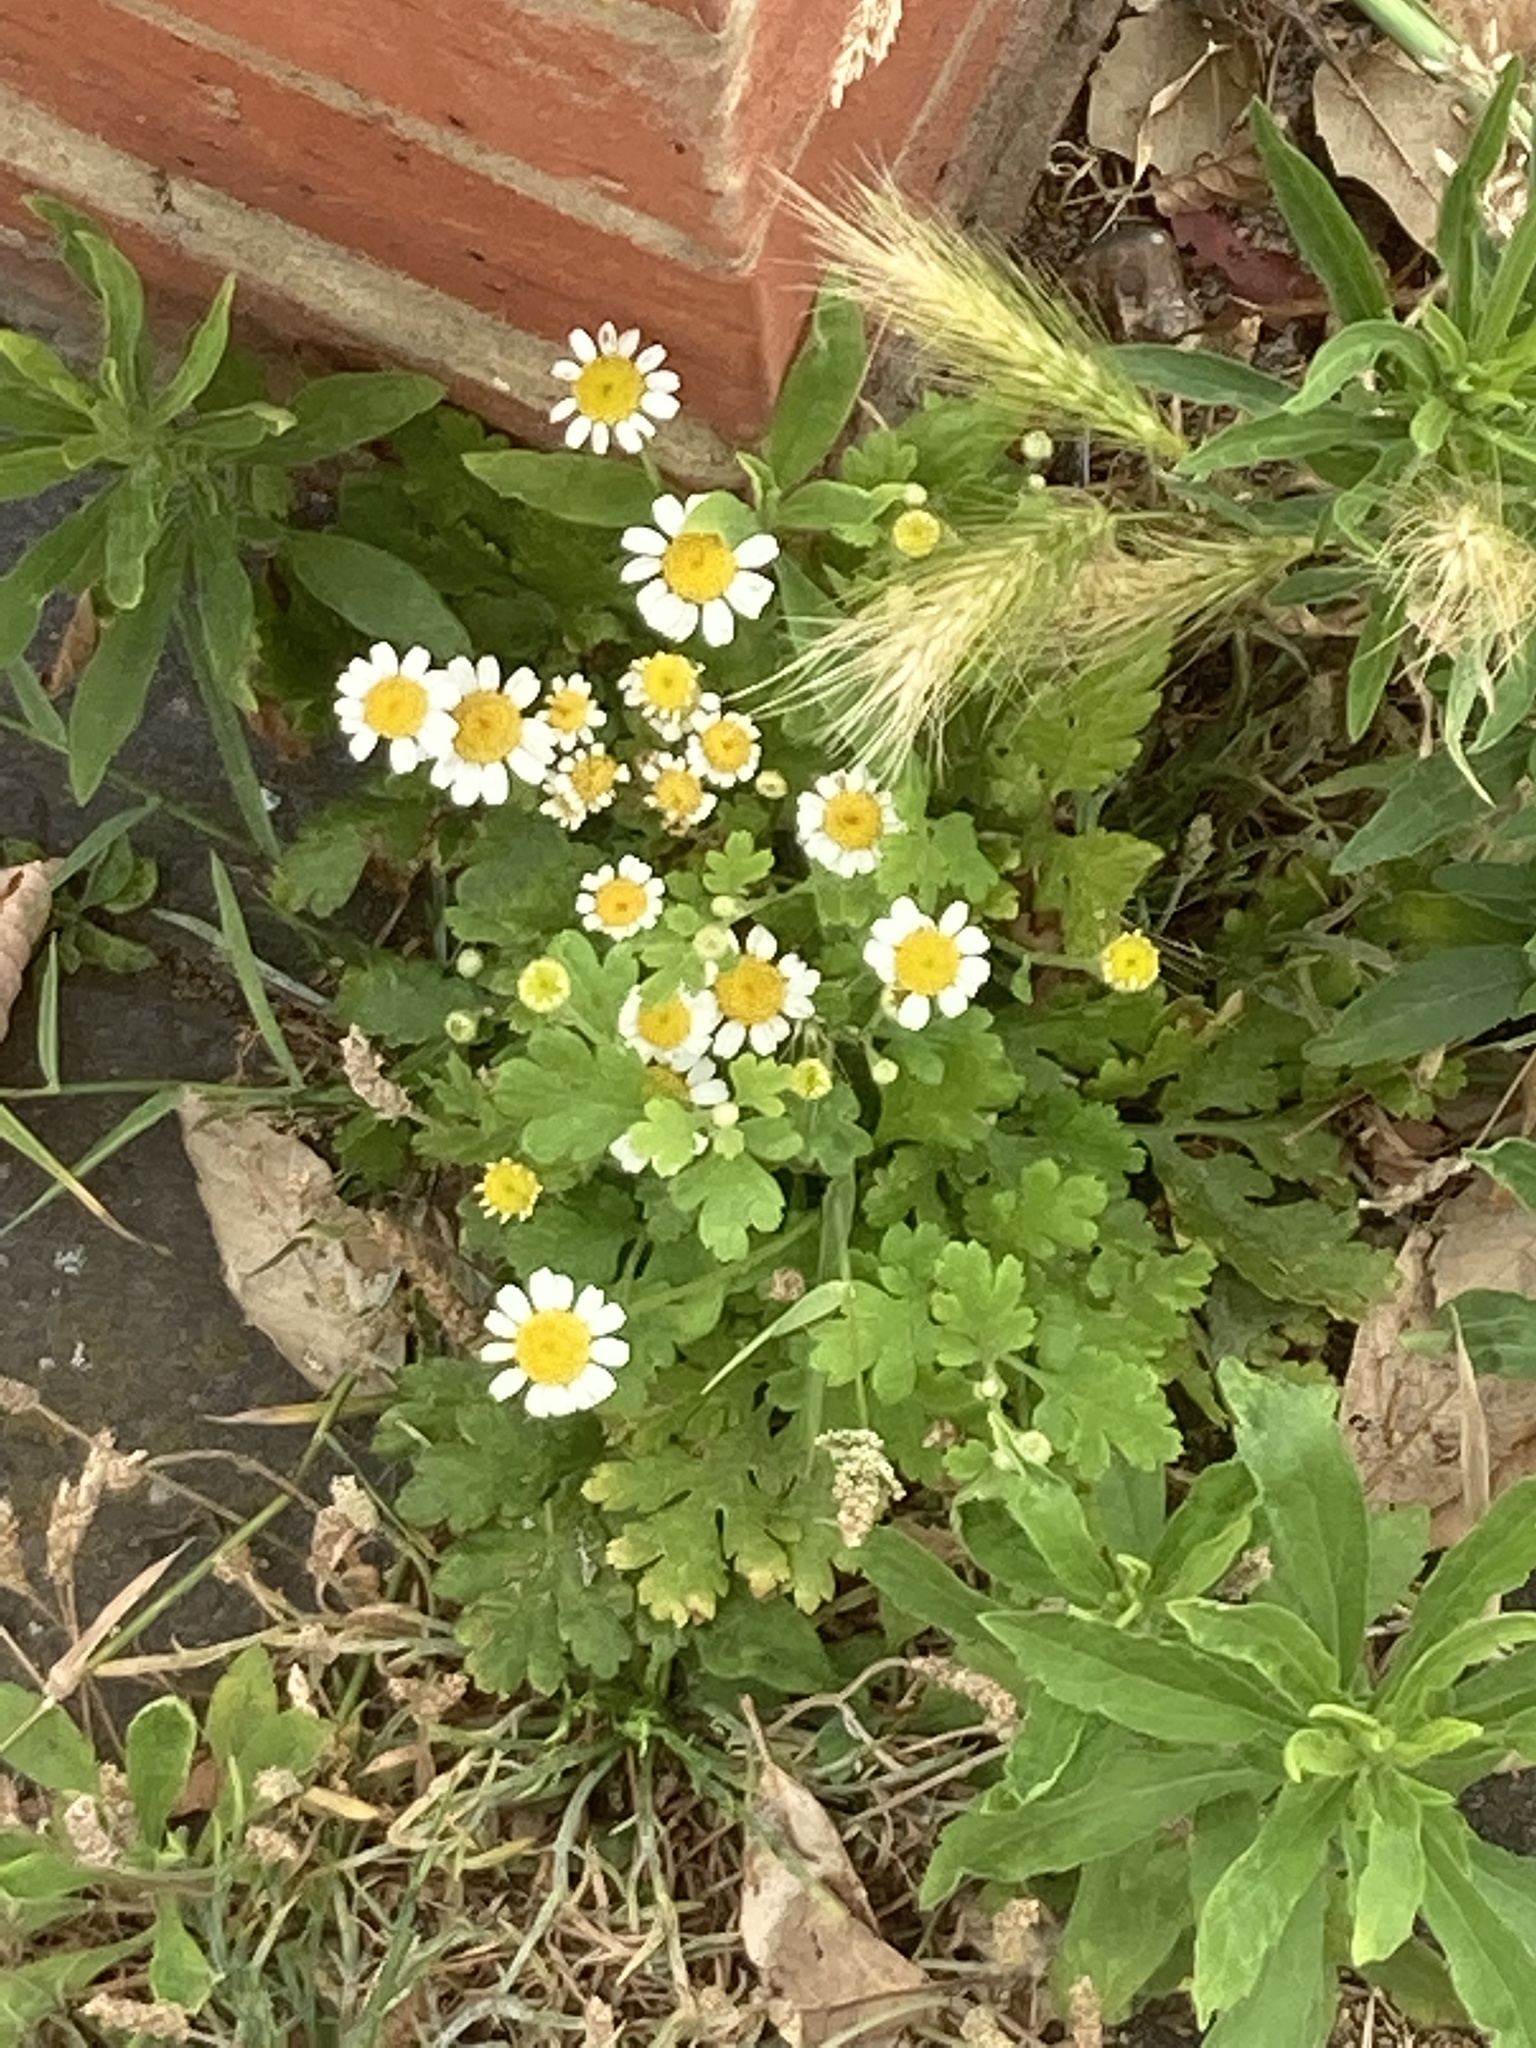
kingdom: Plantae
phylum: Tracheophyta
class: Magnoliopsida
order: Asterales
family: Asteraceae
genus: Tanacetum
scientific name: Tanacetum parthenium
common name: Feverfew
